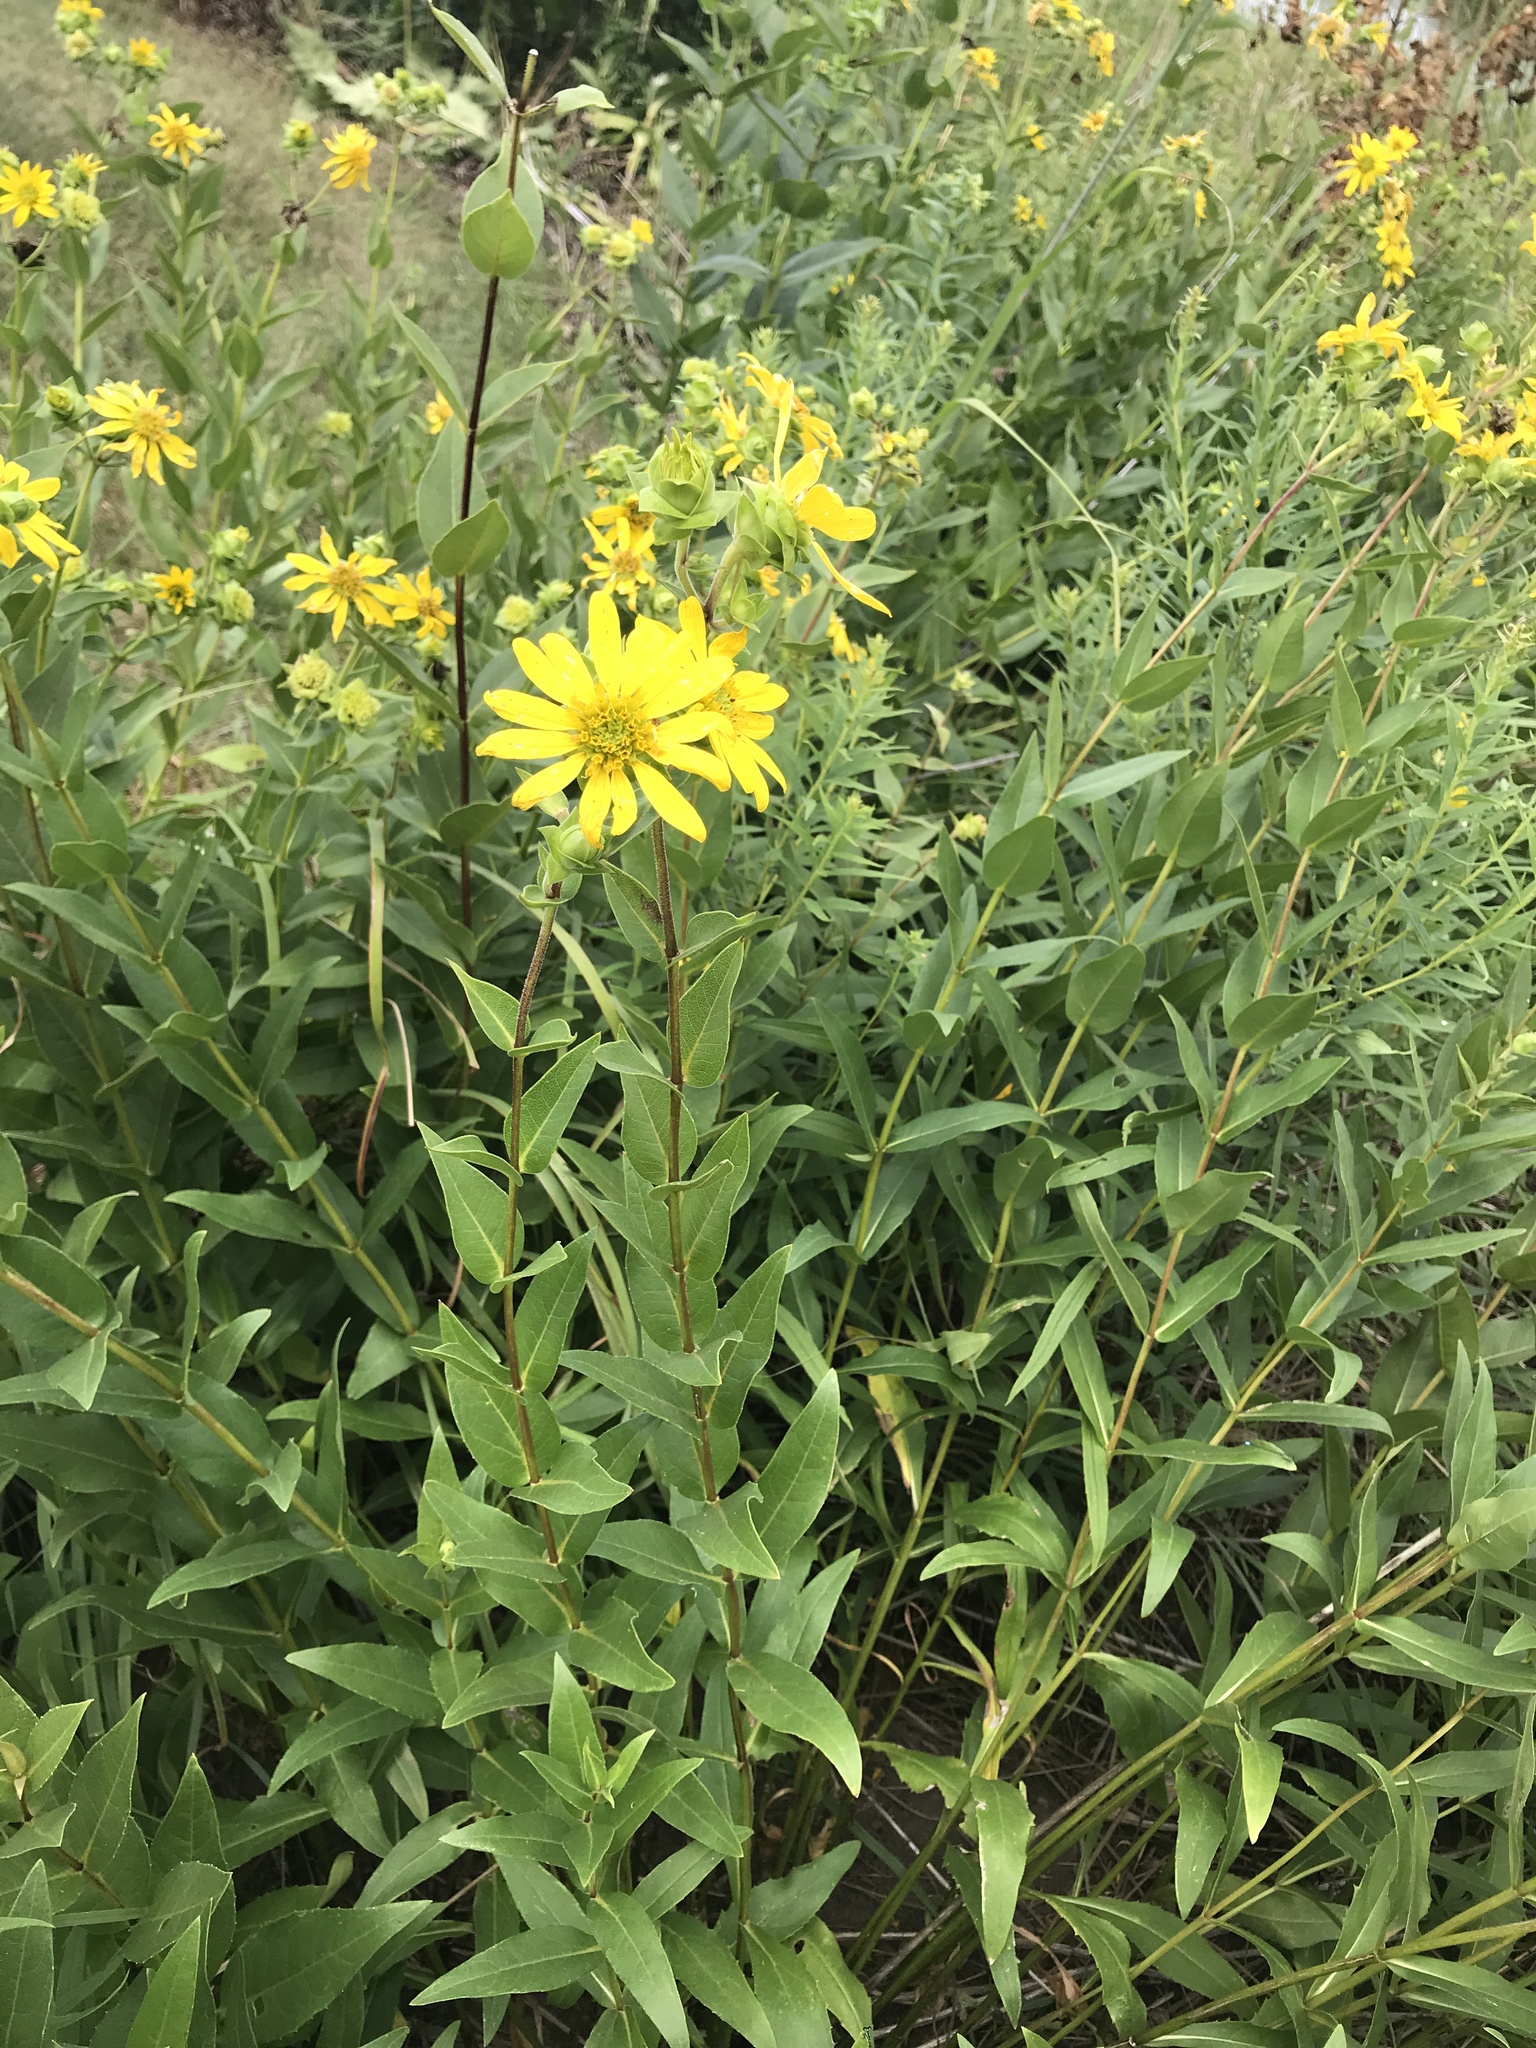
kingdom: Plantae
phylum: Tracheophyta
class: Magnoliopsida
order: Asterales
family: Asteraceae
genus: Silphium
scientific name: Silphium integrifolium
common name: Whole-leaf rosinweed
